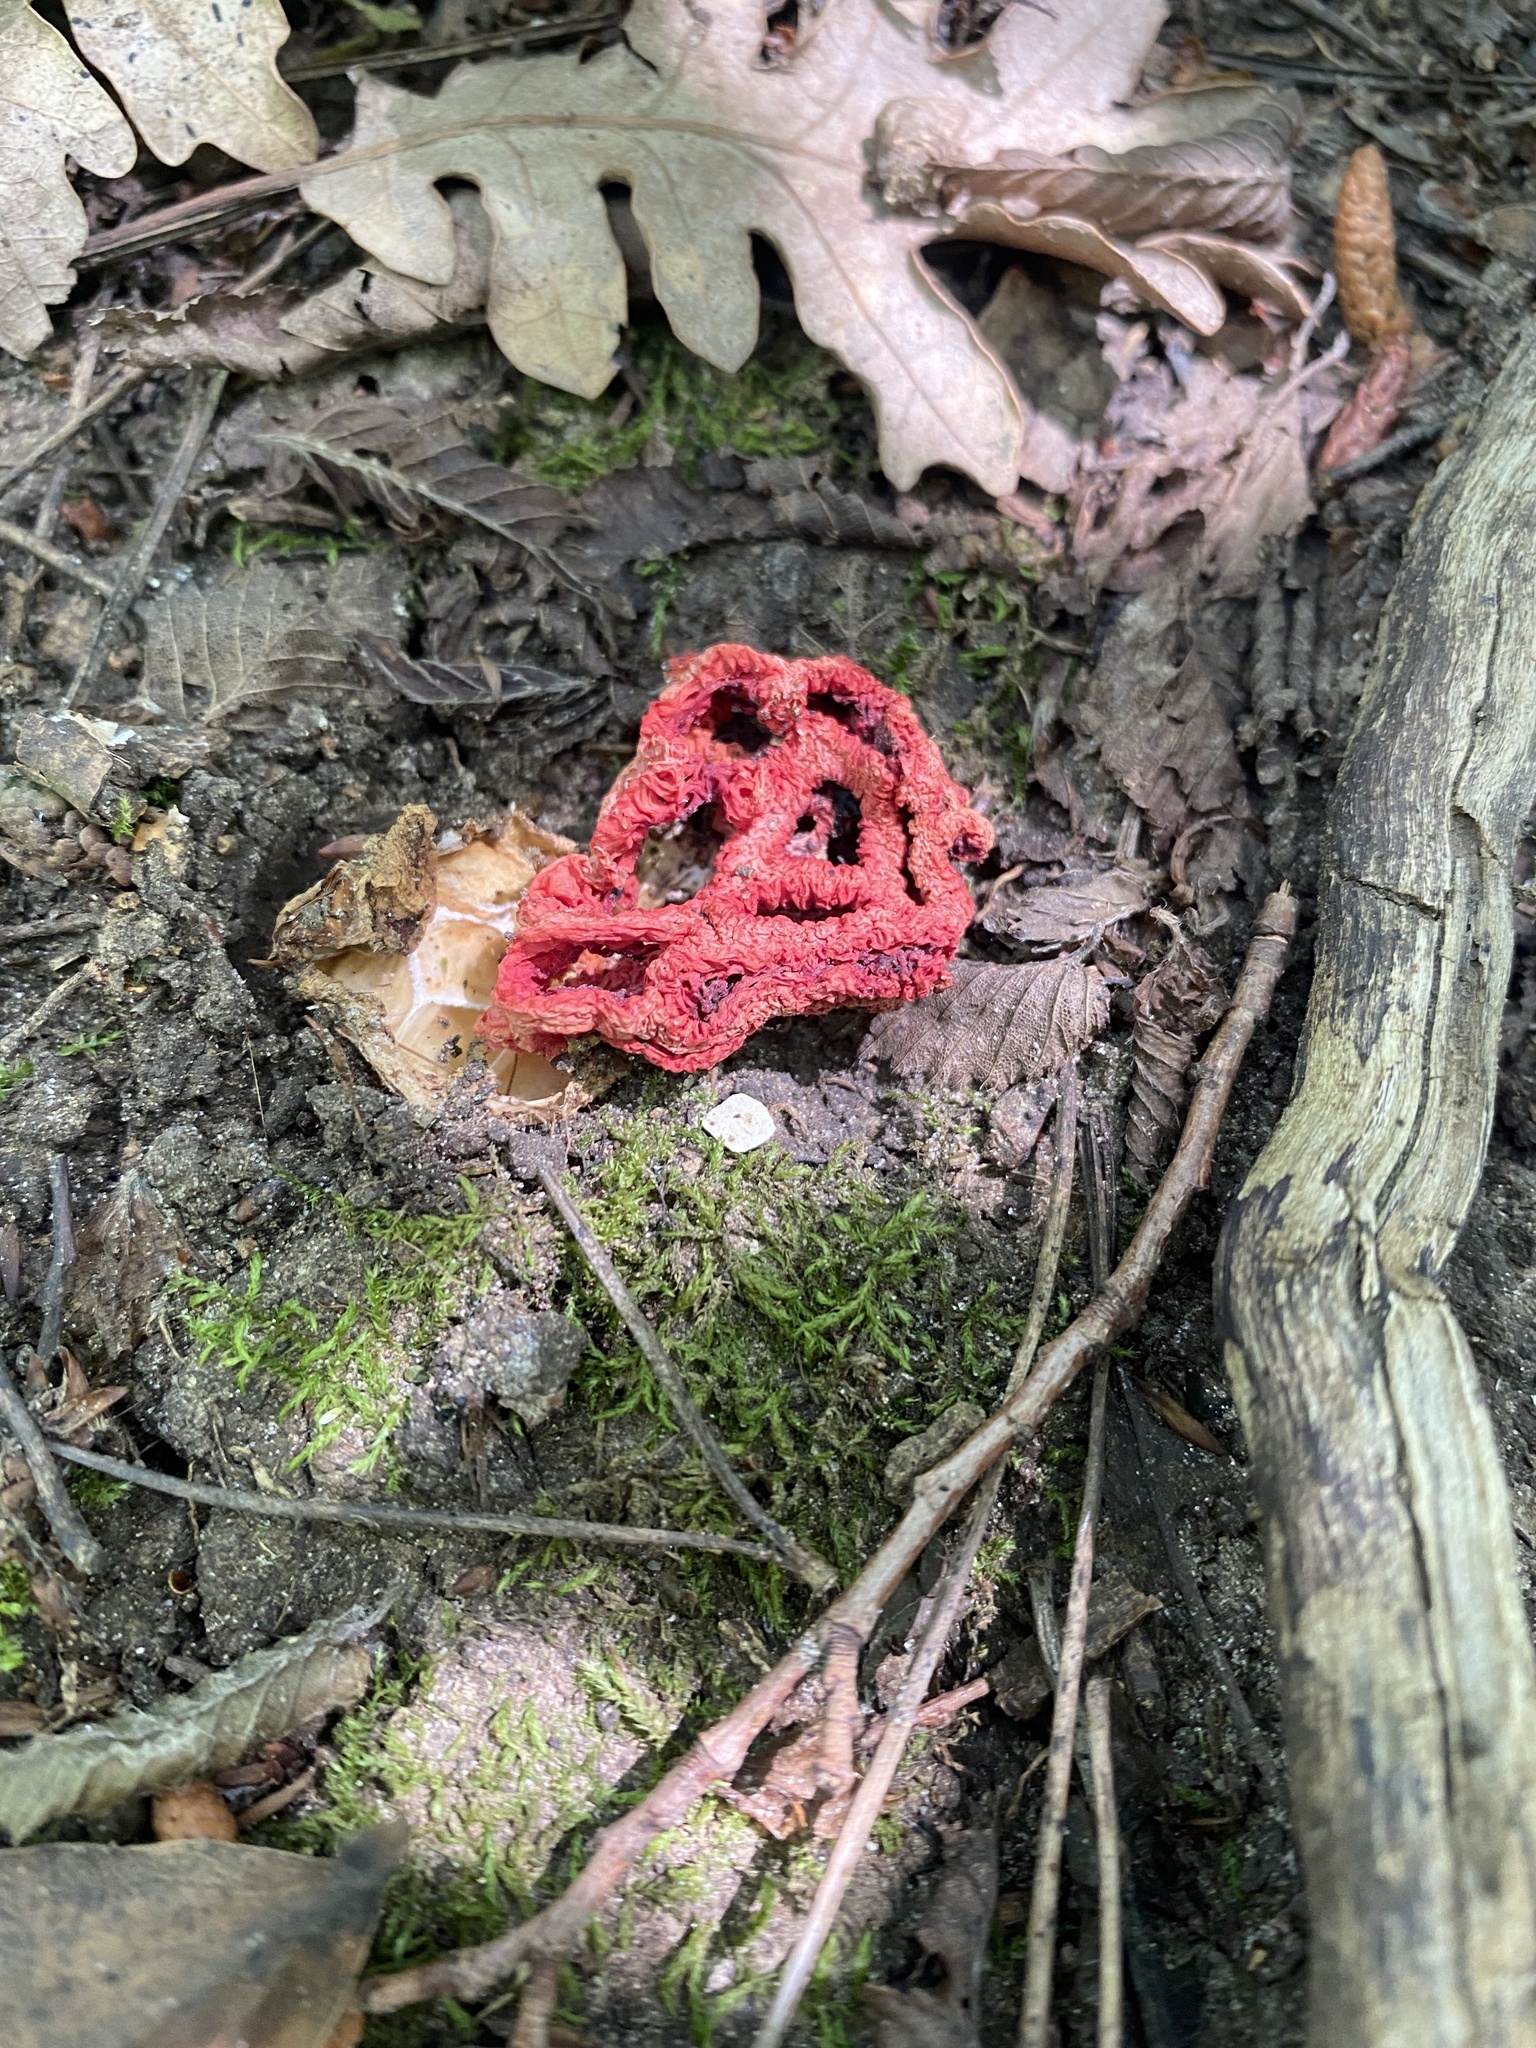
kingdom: Fungi
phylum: Basidiomycota
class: Agaricomycetes
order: Phallales
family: Phallaceae
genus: Clathrus
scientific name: Clathrus ruber
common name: Red cage
